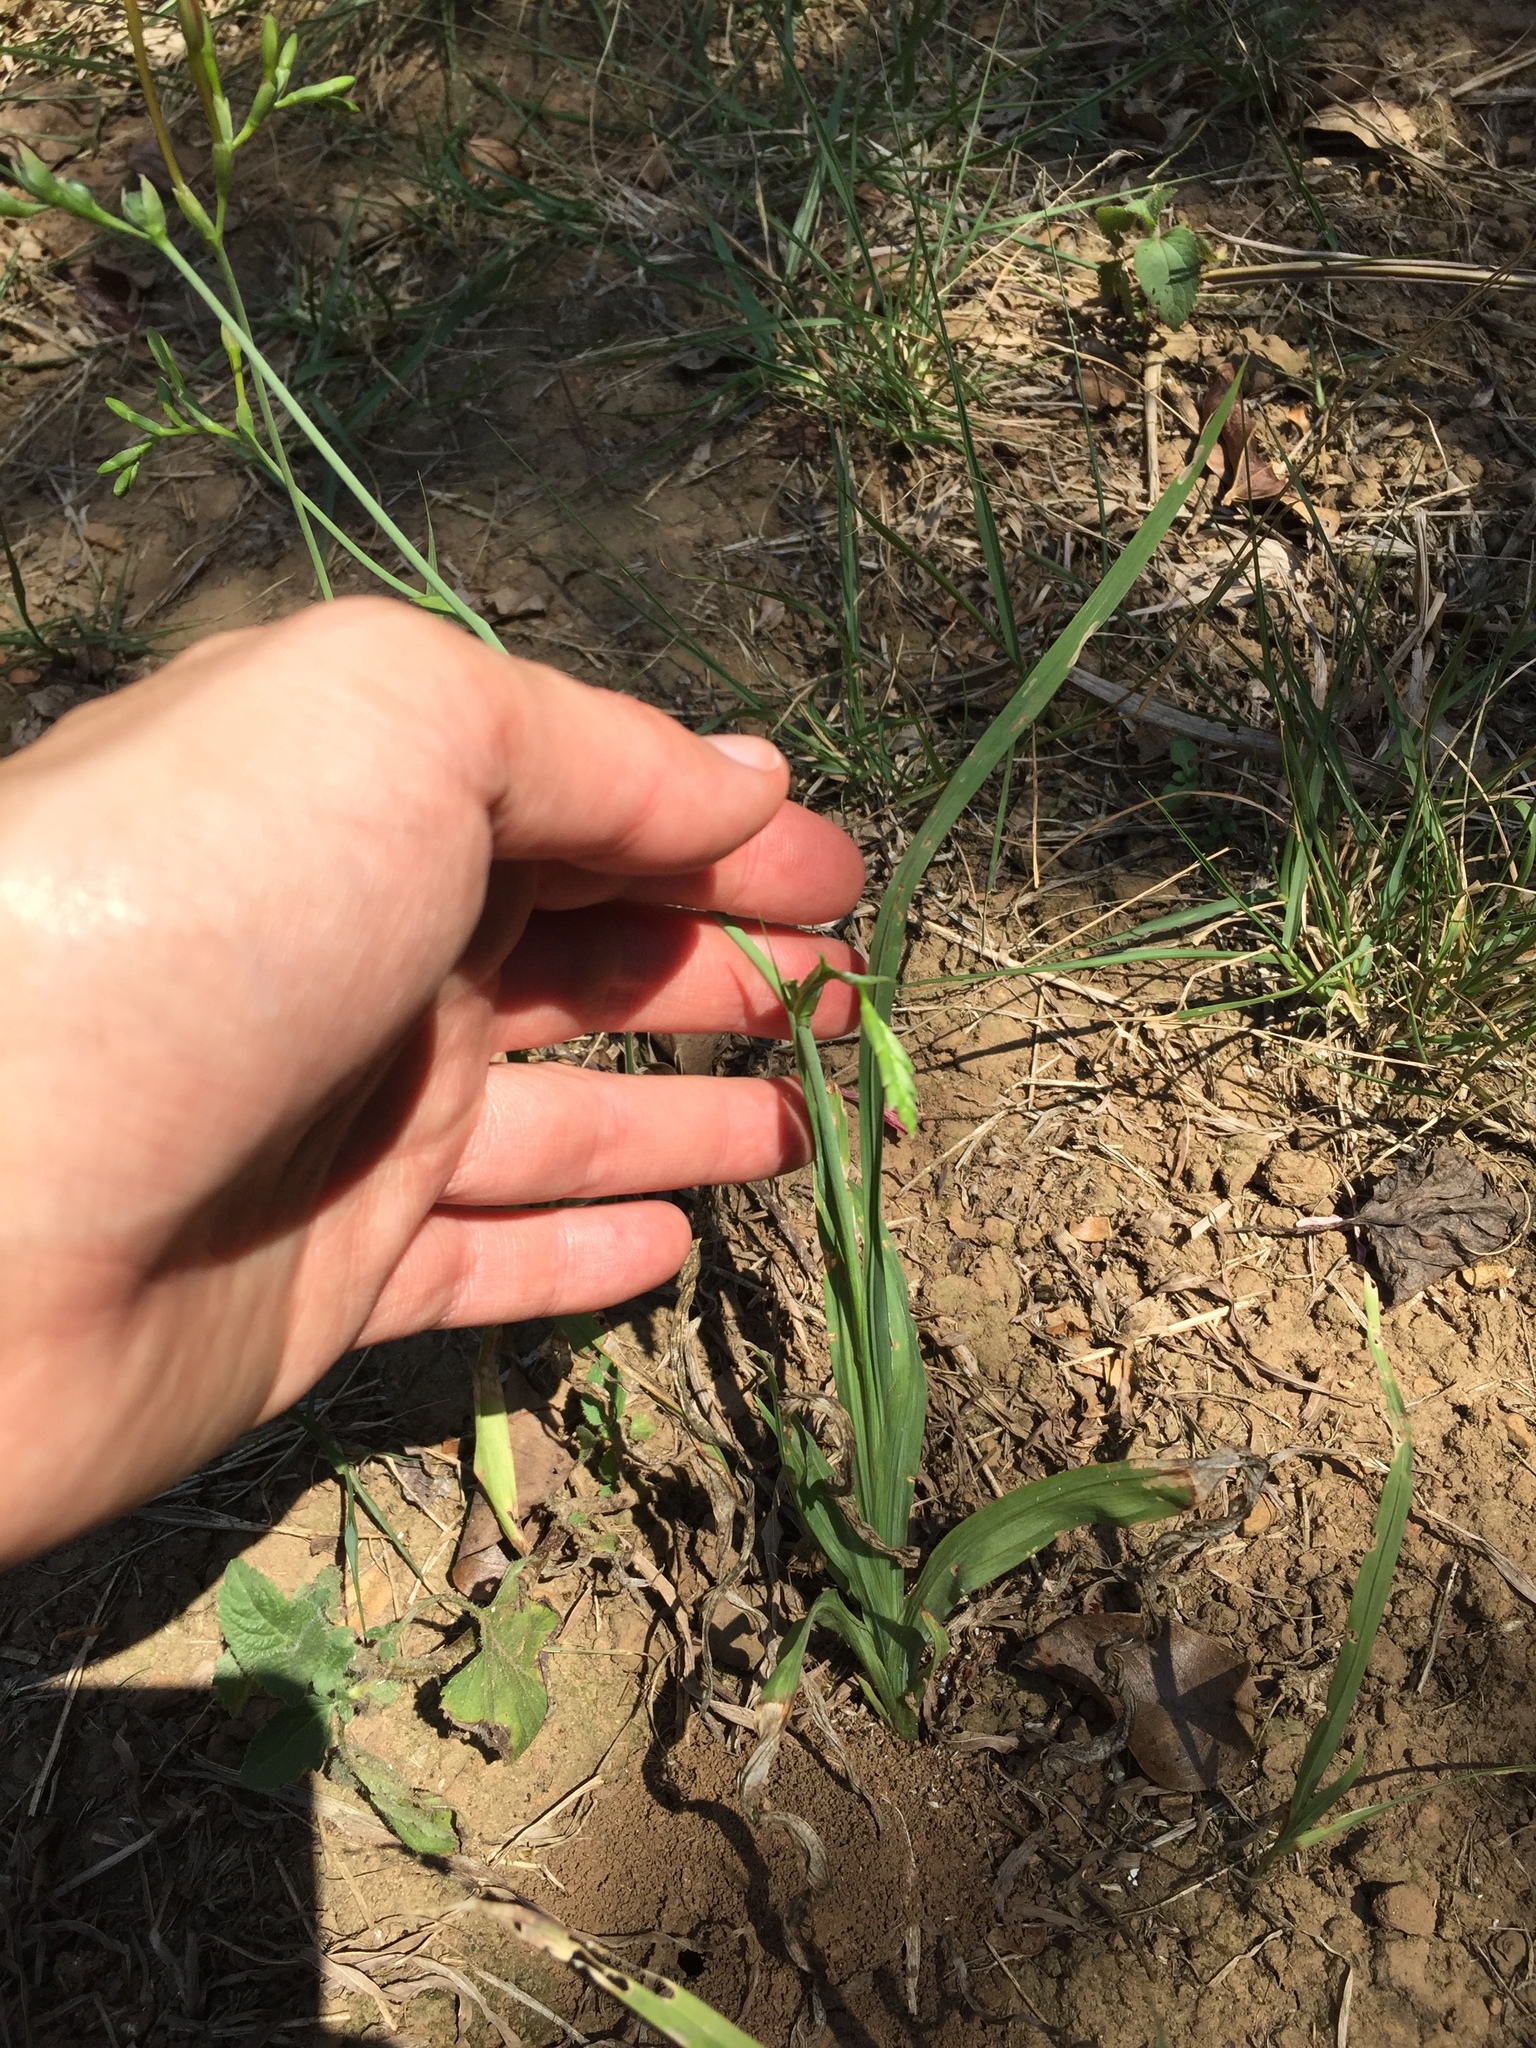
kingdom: Plantae
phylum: Tracheophyta
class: Liliopsida
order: Asparagales
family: Iridaceae
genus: Freesia
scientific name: Freesia laxa
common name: False freesia
